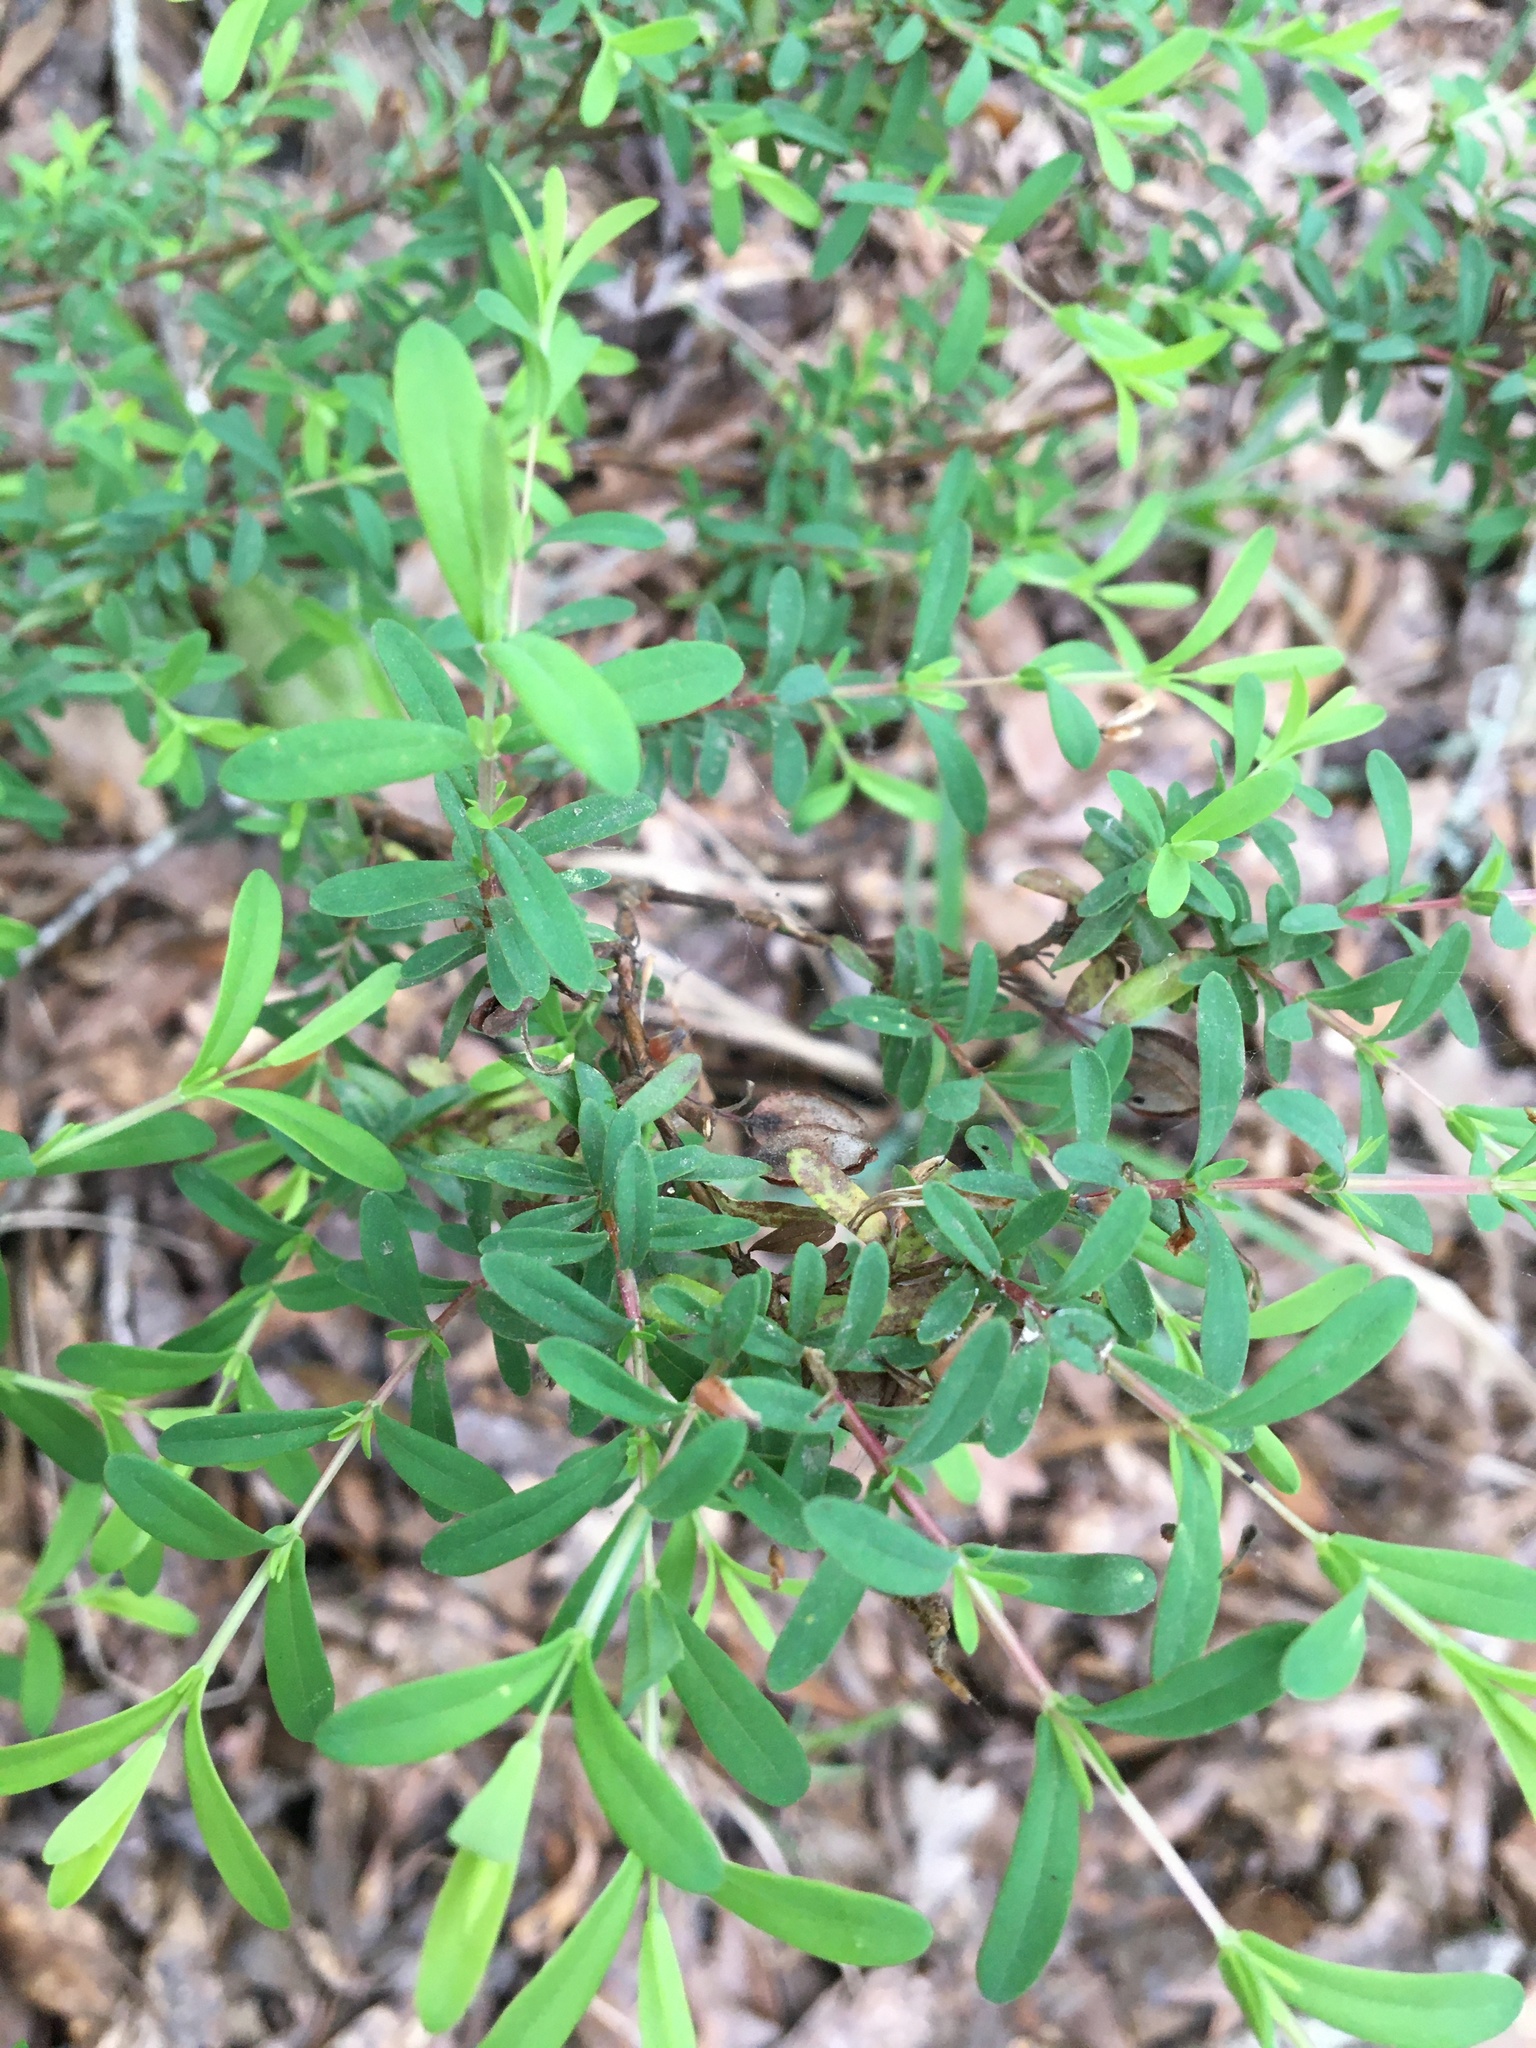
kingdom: Plantae
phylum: Tracheophyta
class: Magnoliopsida
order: Malpighiales
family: Hypericaceae
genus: Hypericum
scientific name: Hypericum hypericoides
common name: St. andrew's cross
